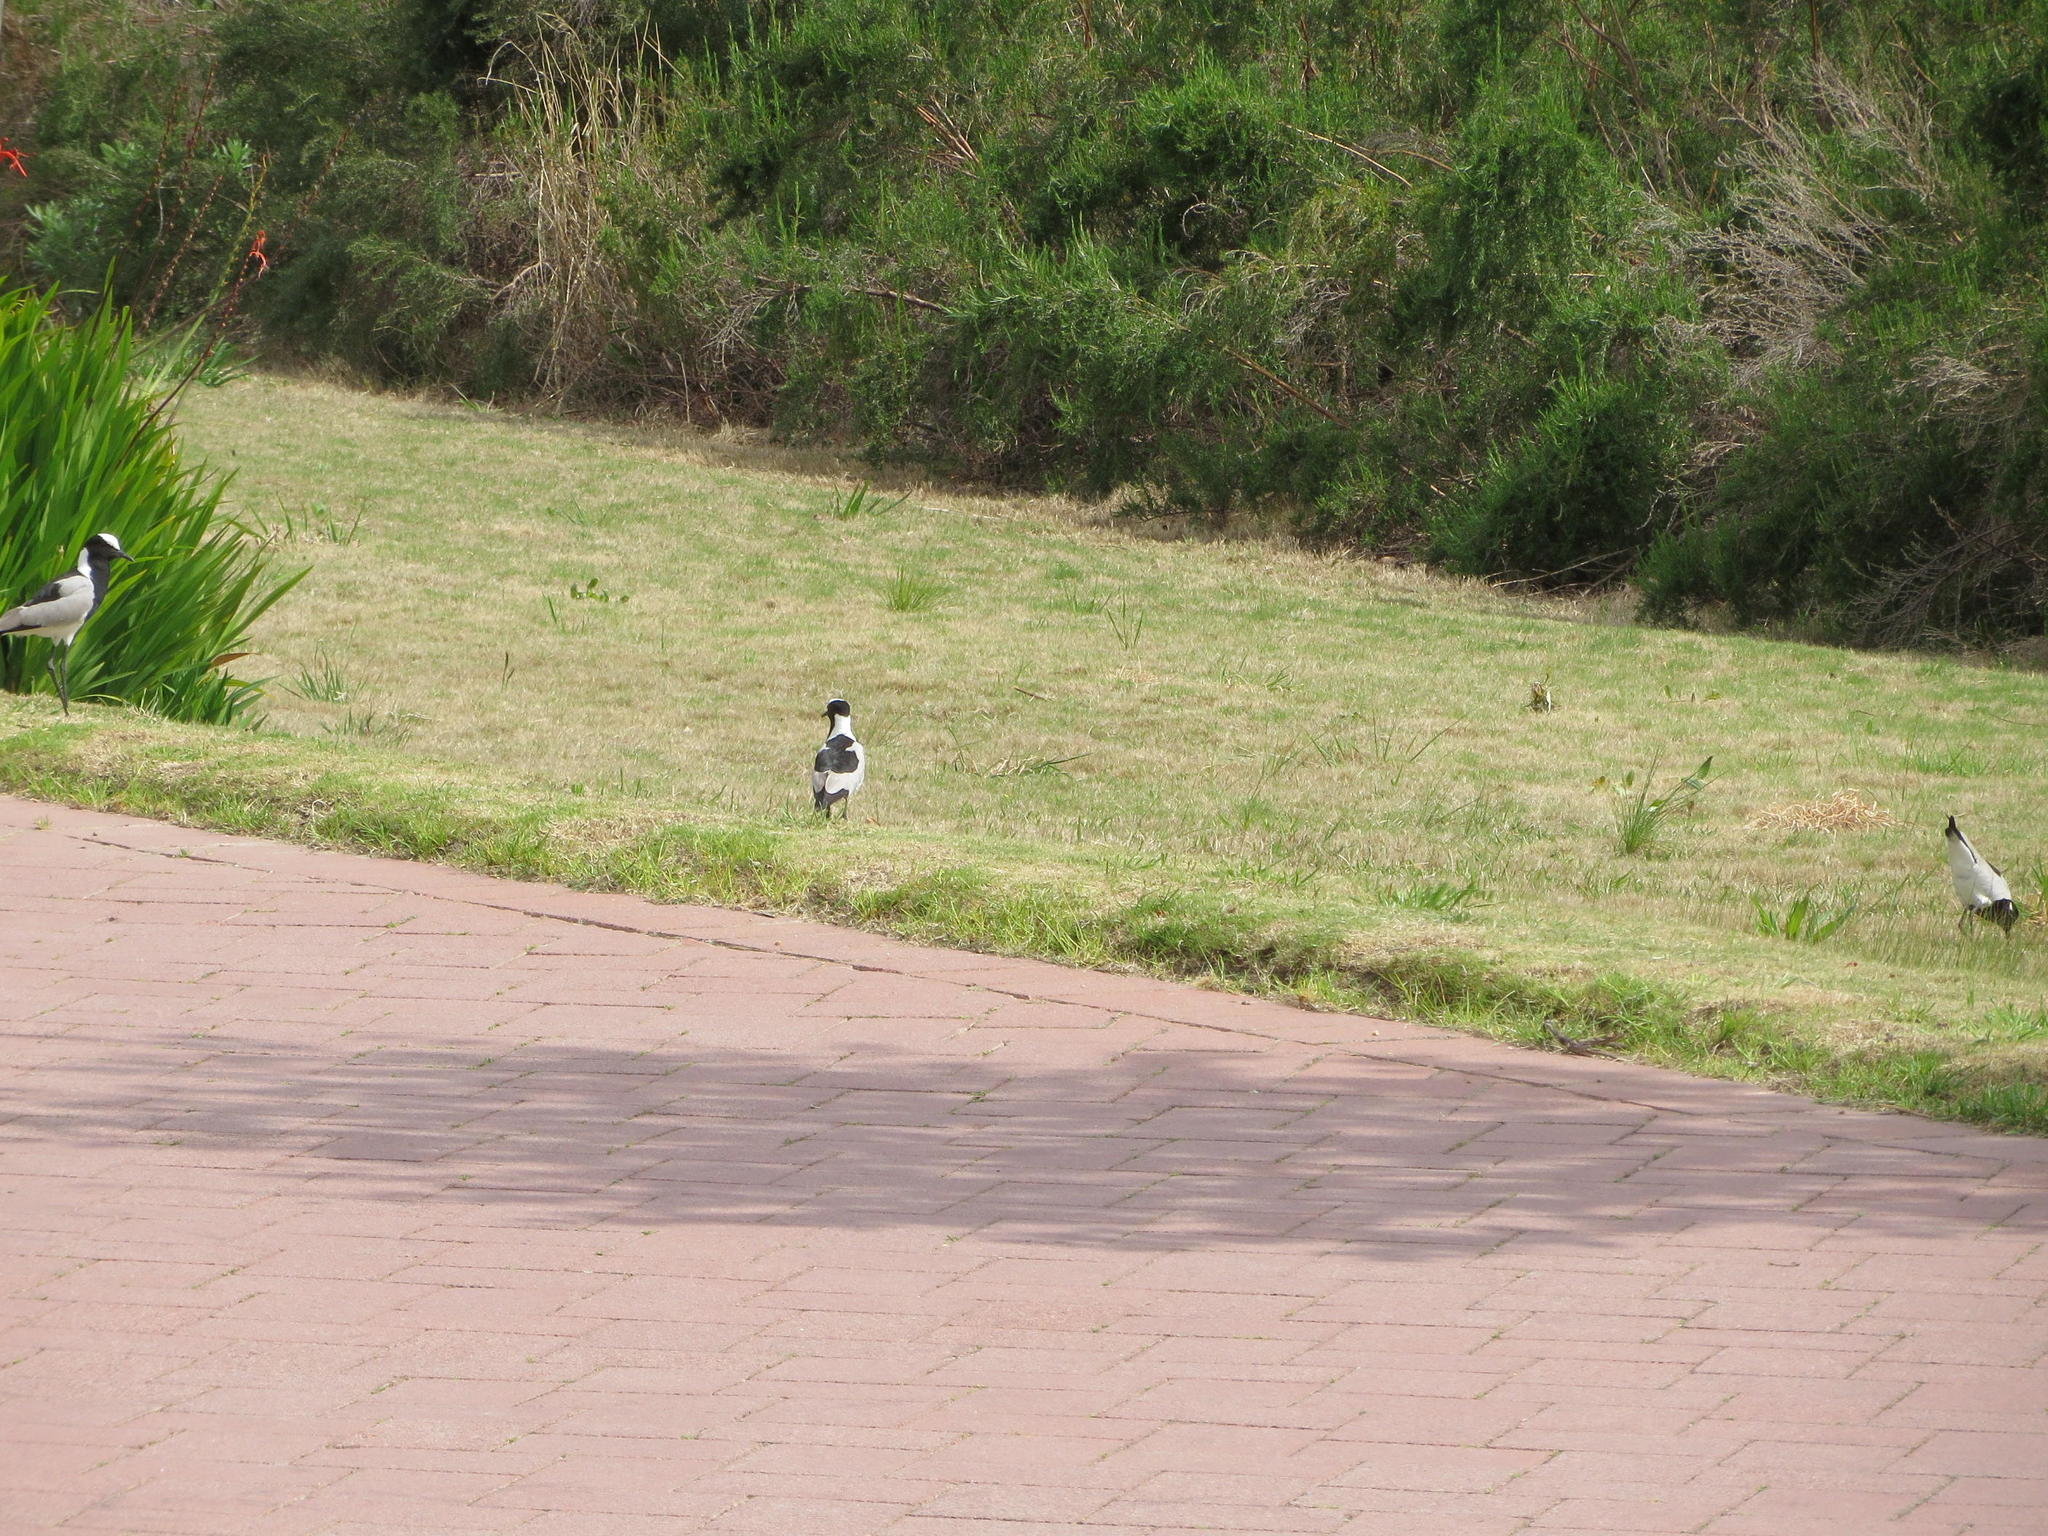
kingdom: Animalia
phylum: Chordata
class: Aves
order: Charadriiformes
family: Charadriidae
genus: Vanellus
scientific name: Vanellus armatus
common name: Blacksmith lapwing
